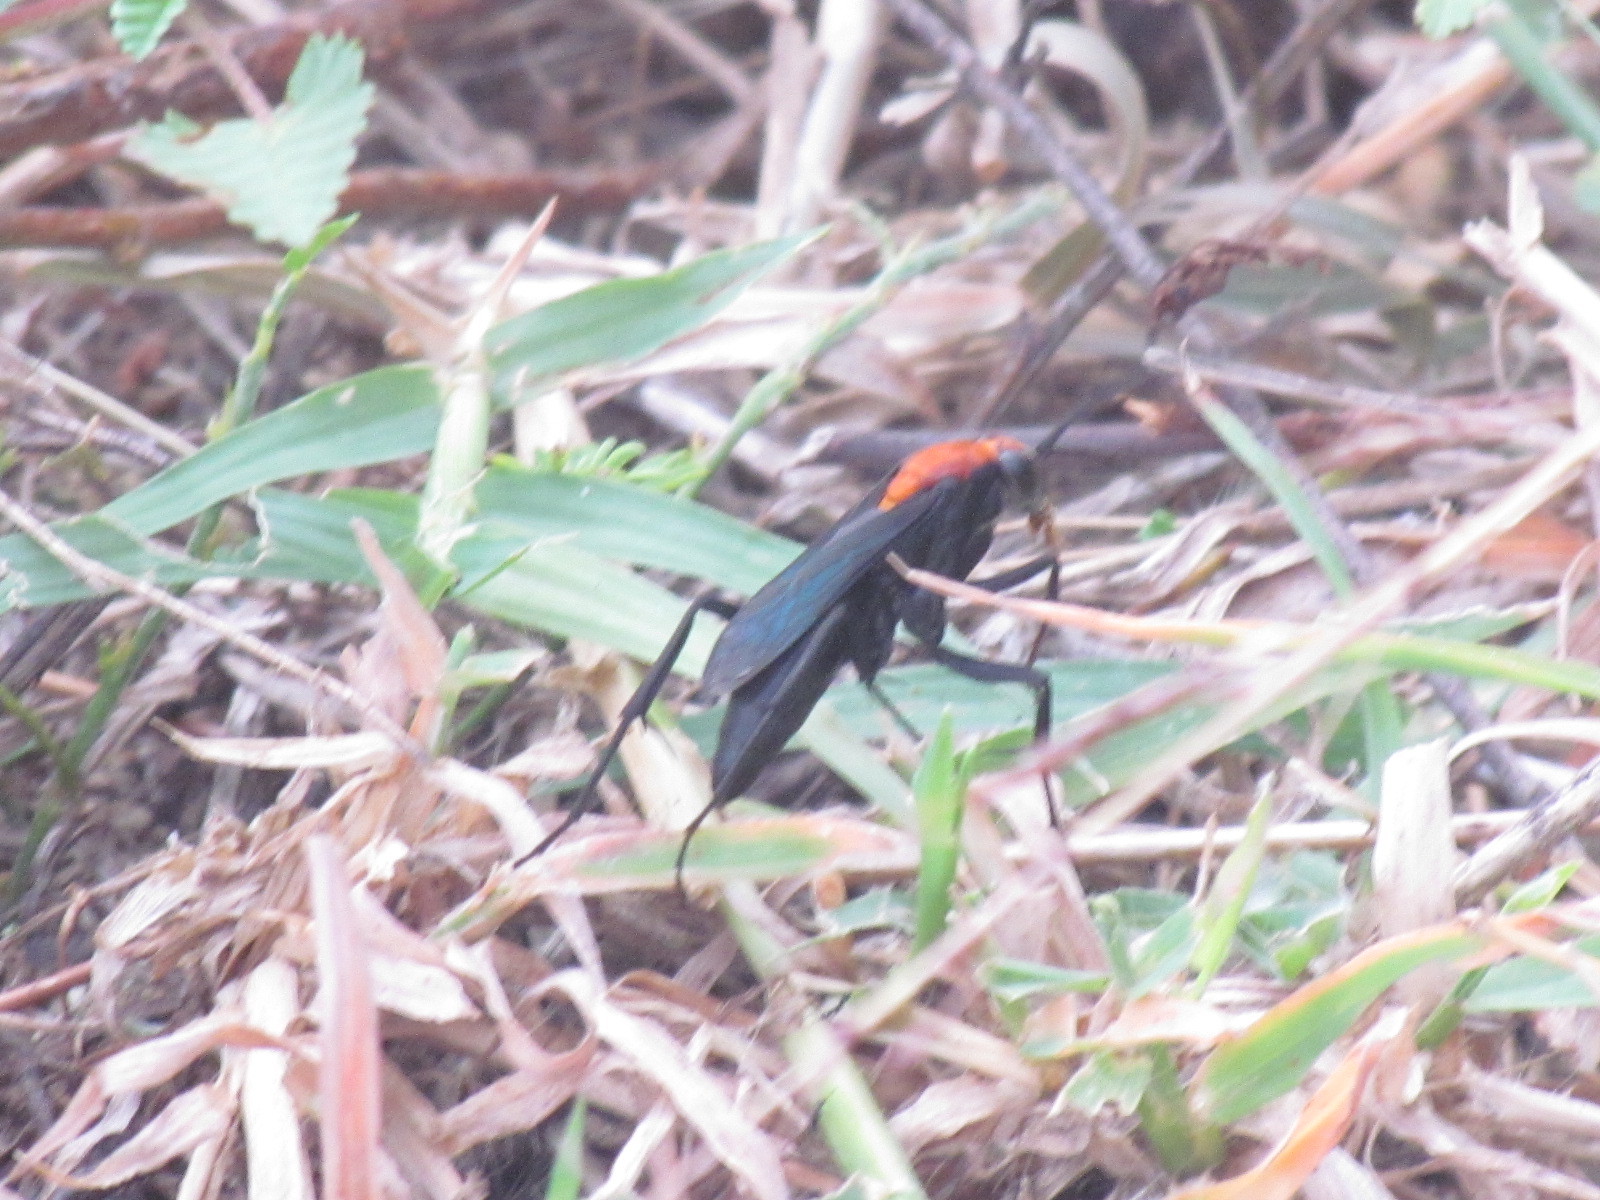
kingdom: Animalia
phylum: Arthropoda
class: Insecta
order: Hymenoptera
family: Pompilidae
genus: Notocyphus
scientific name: Notocyphus dorsalis
